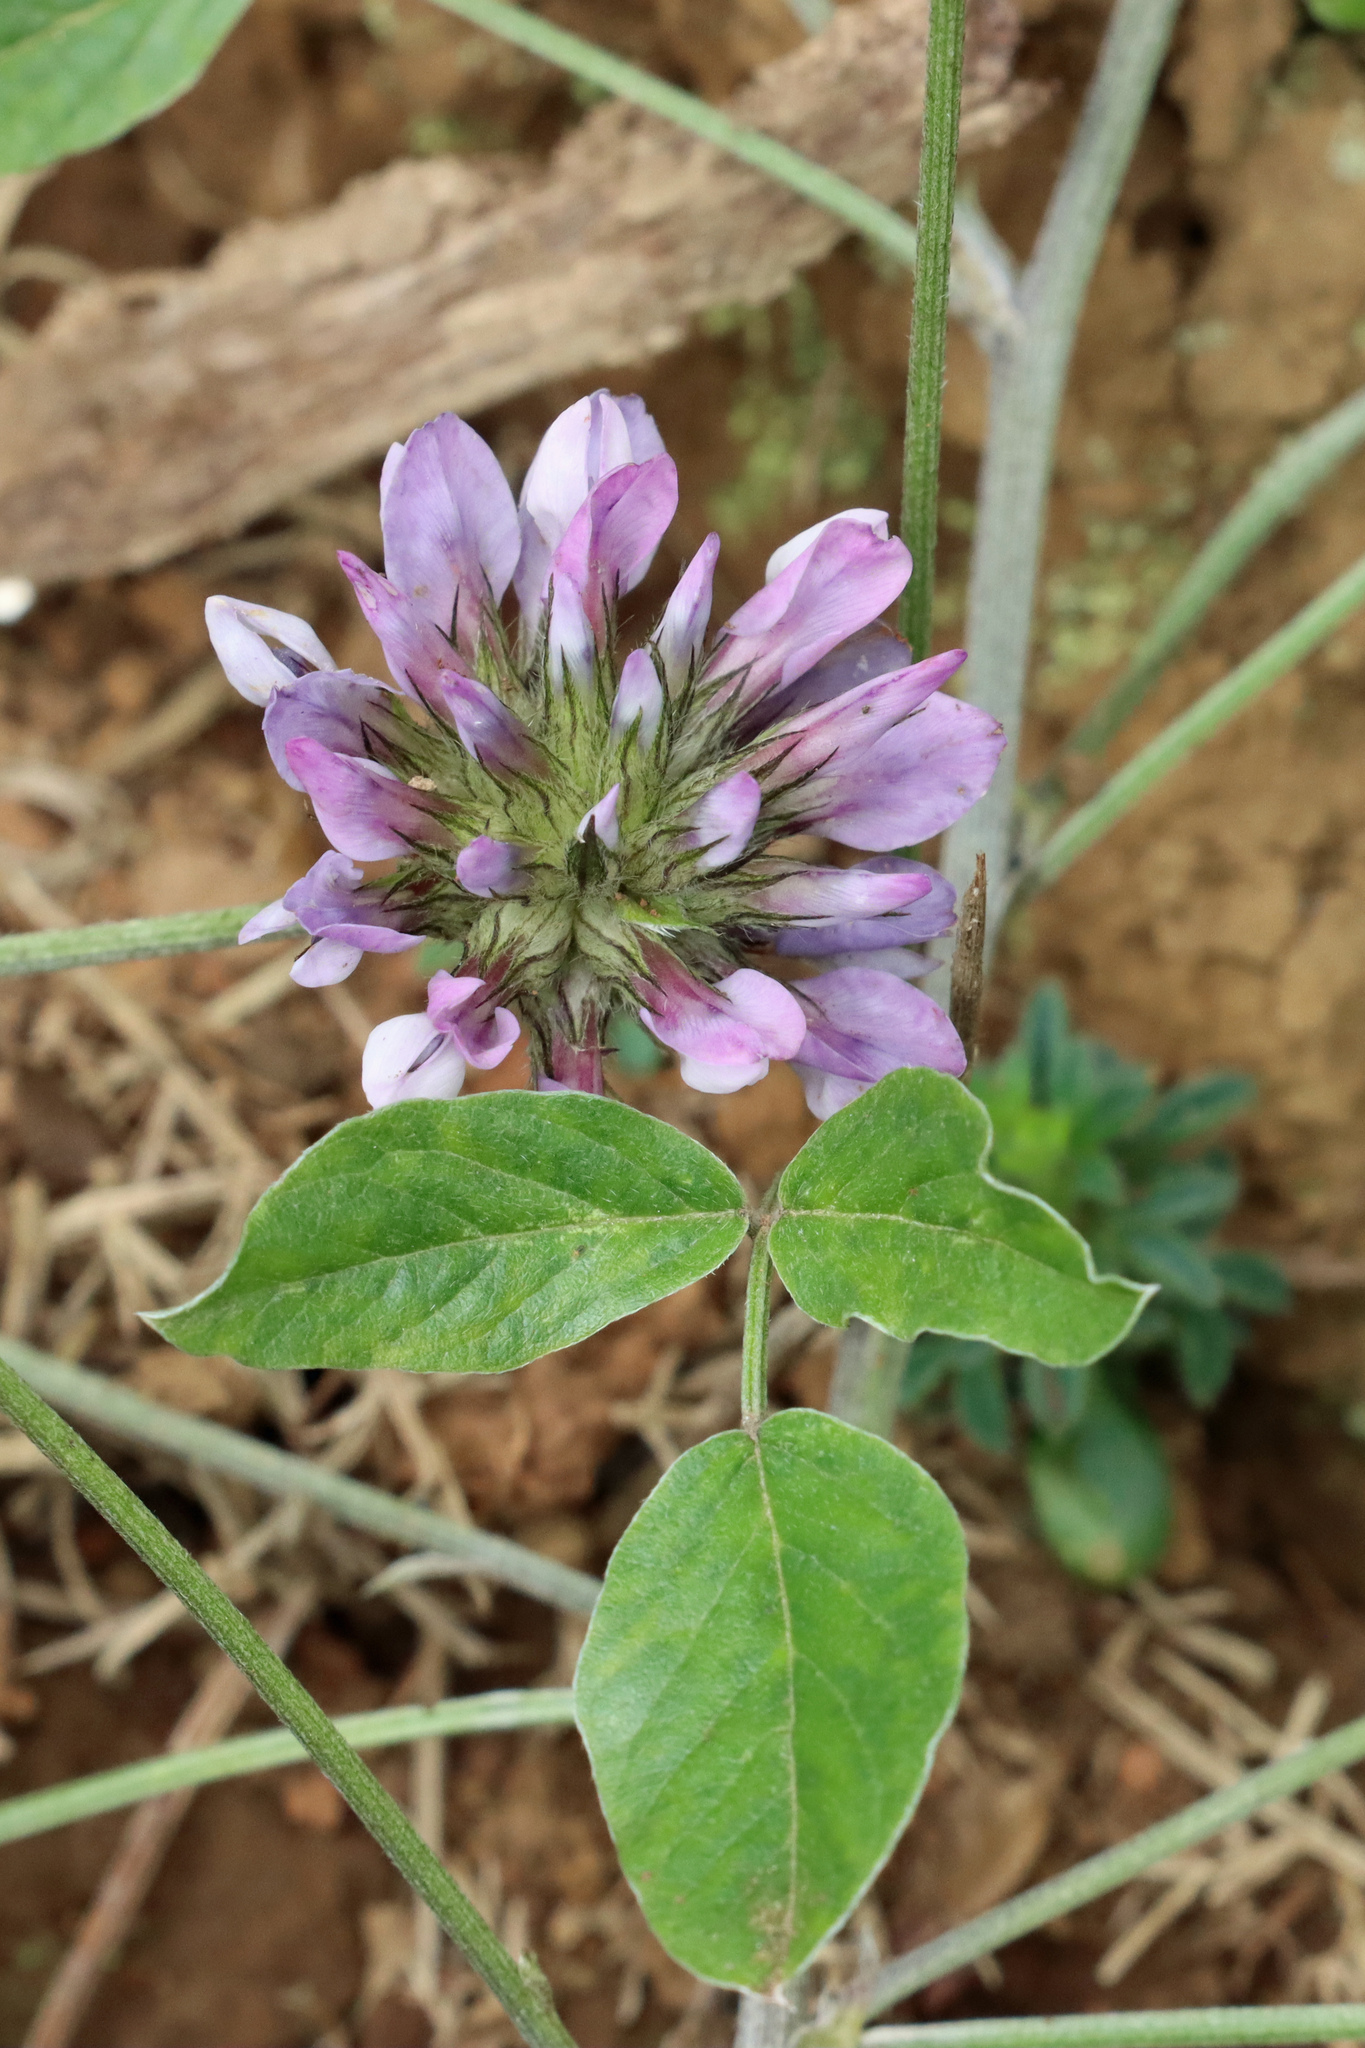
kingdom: Plantae
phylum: Tracheophyta
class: Magnoliopsida
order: Fabales
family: Fabaceae
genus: Bituminaria
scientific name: Bituminaria bituminosa
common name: Arabian pea
